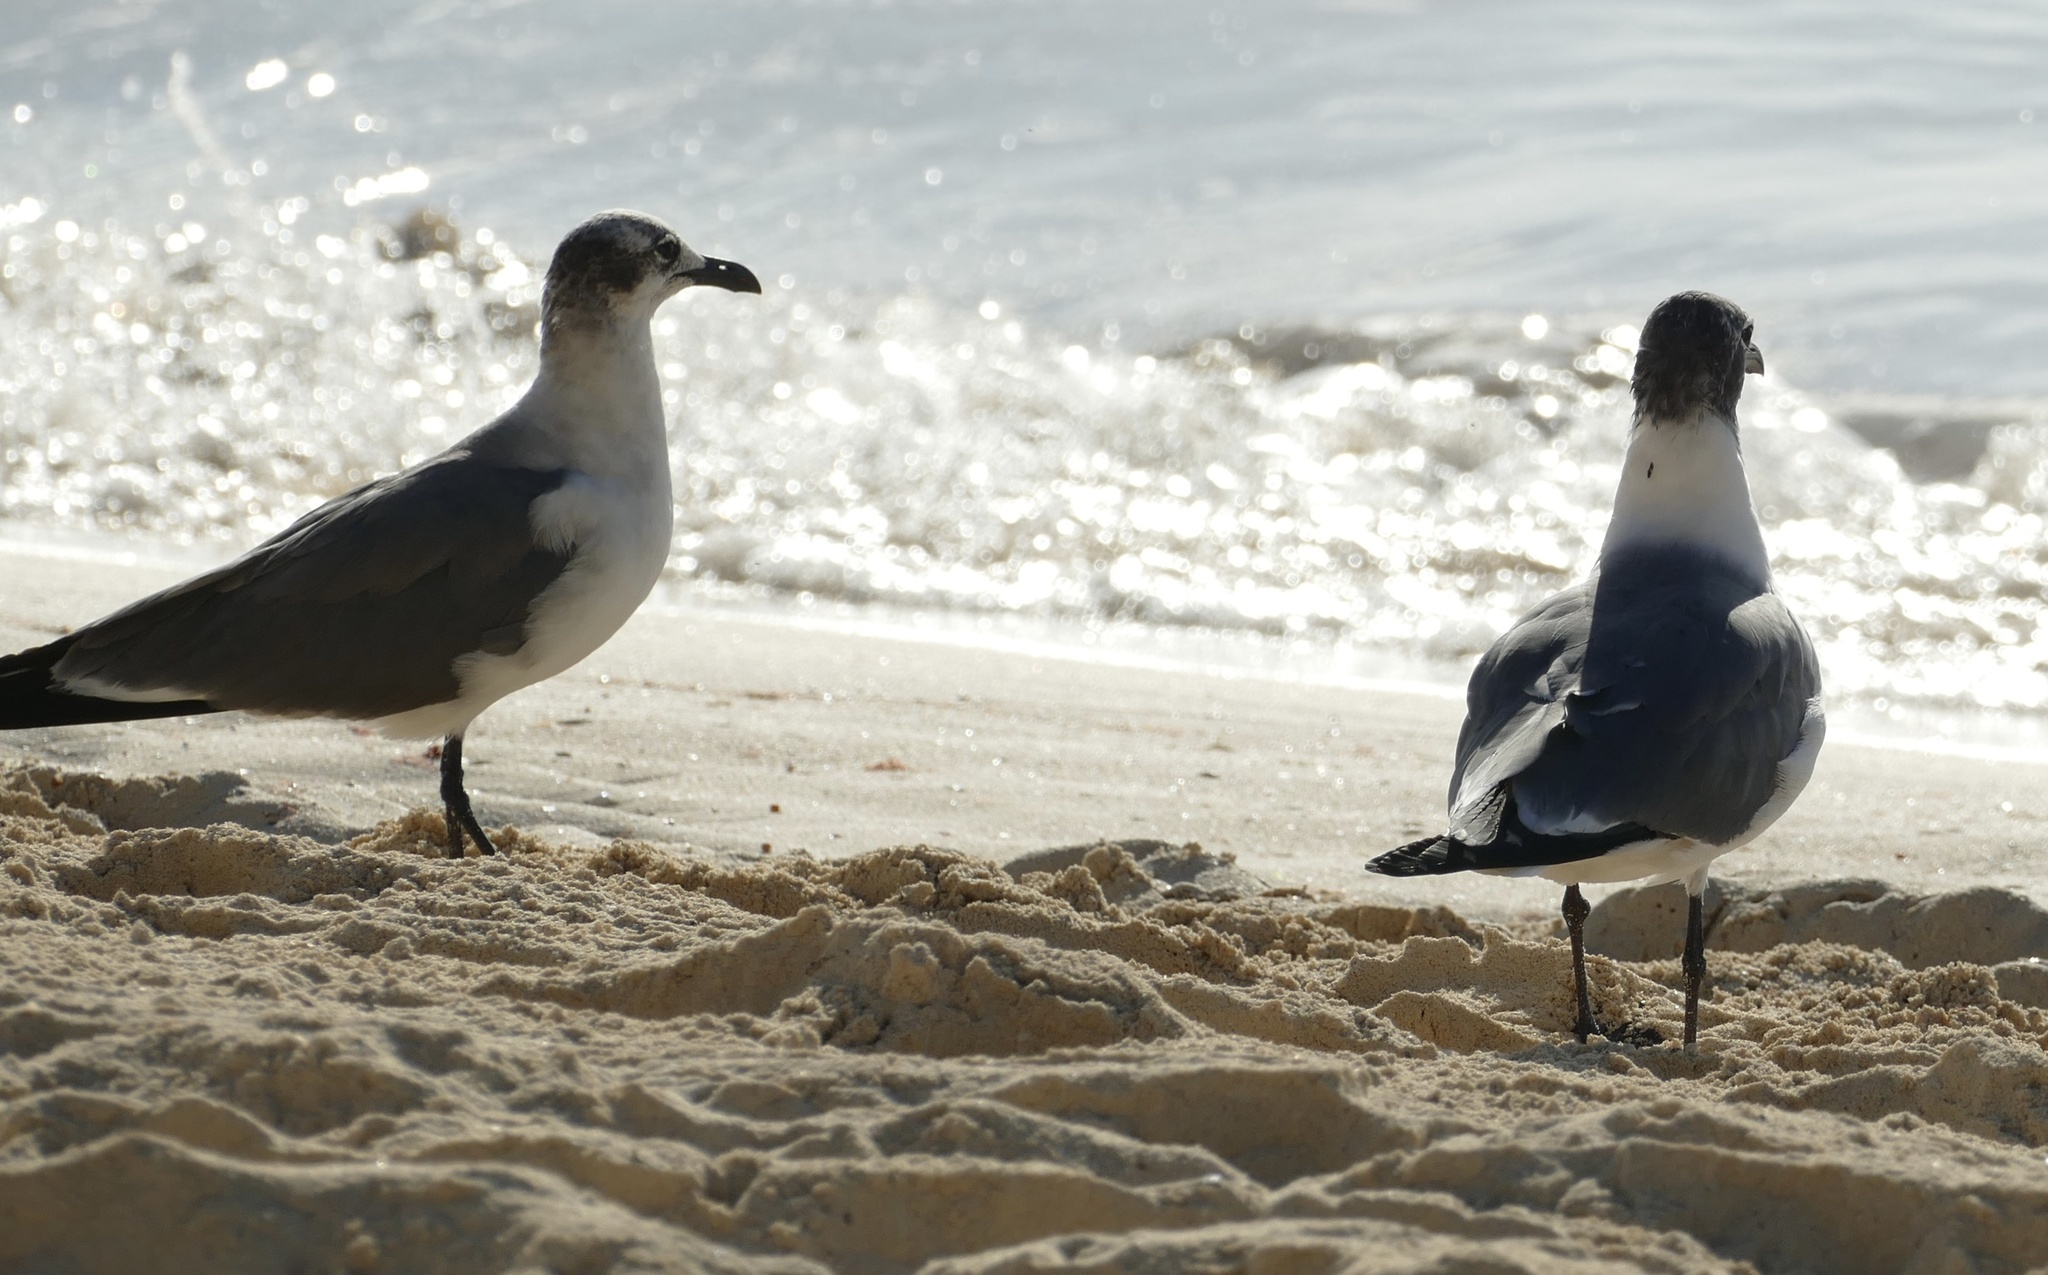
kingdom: Animalia
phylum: Chordata
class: Aves
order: Charadriiformes
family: Laridae
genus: Leucophaeus
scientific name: Leucophaeus atricilla
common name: Laughing gull
